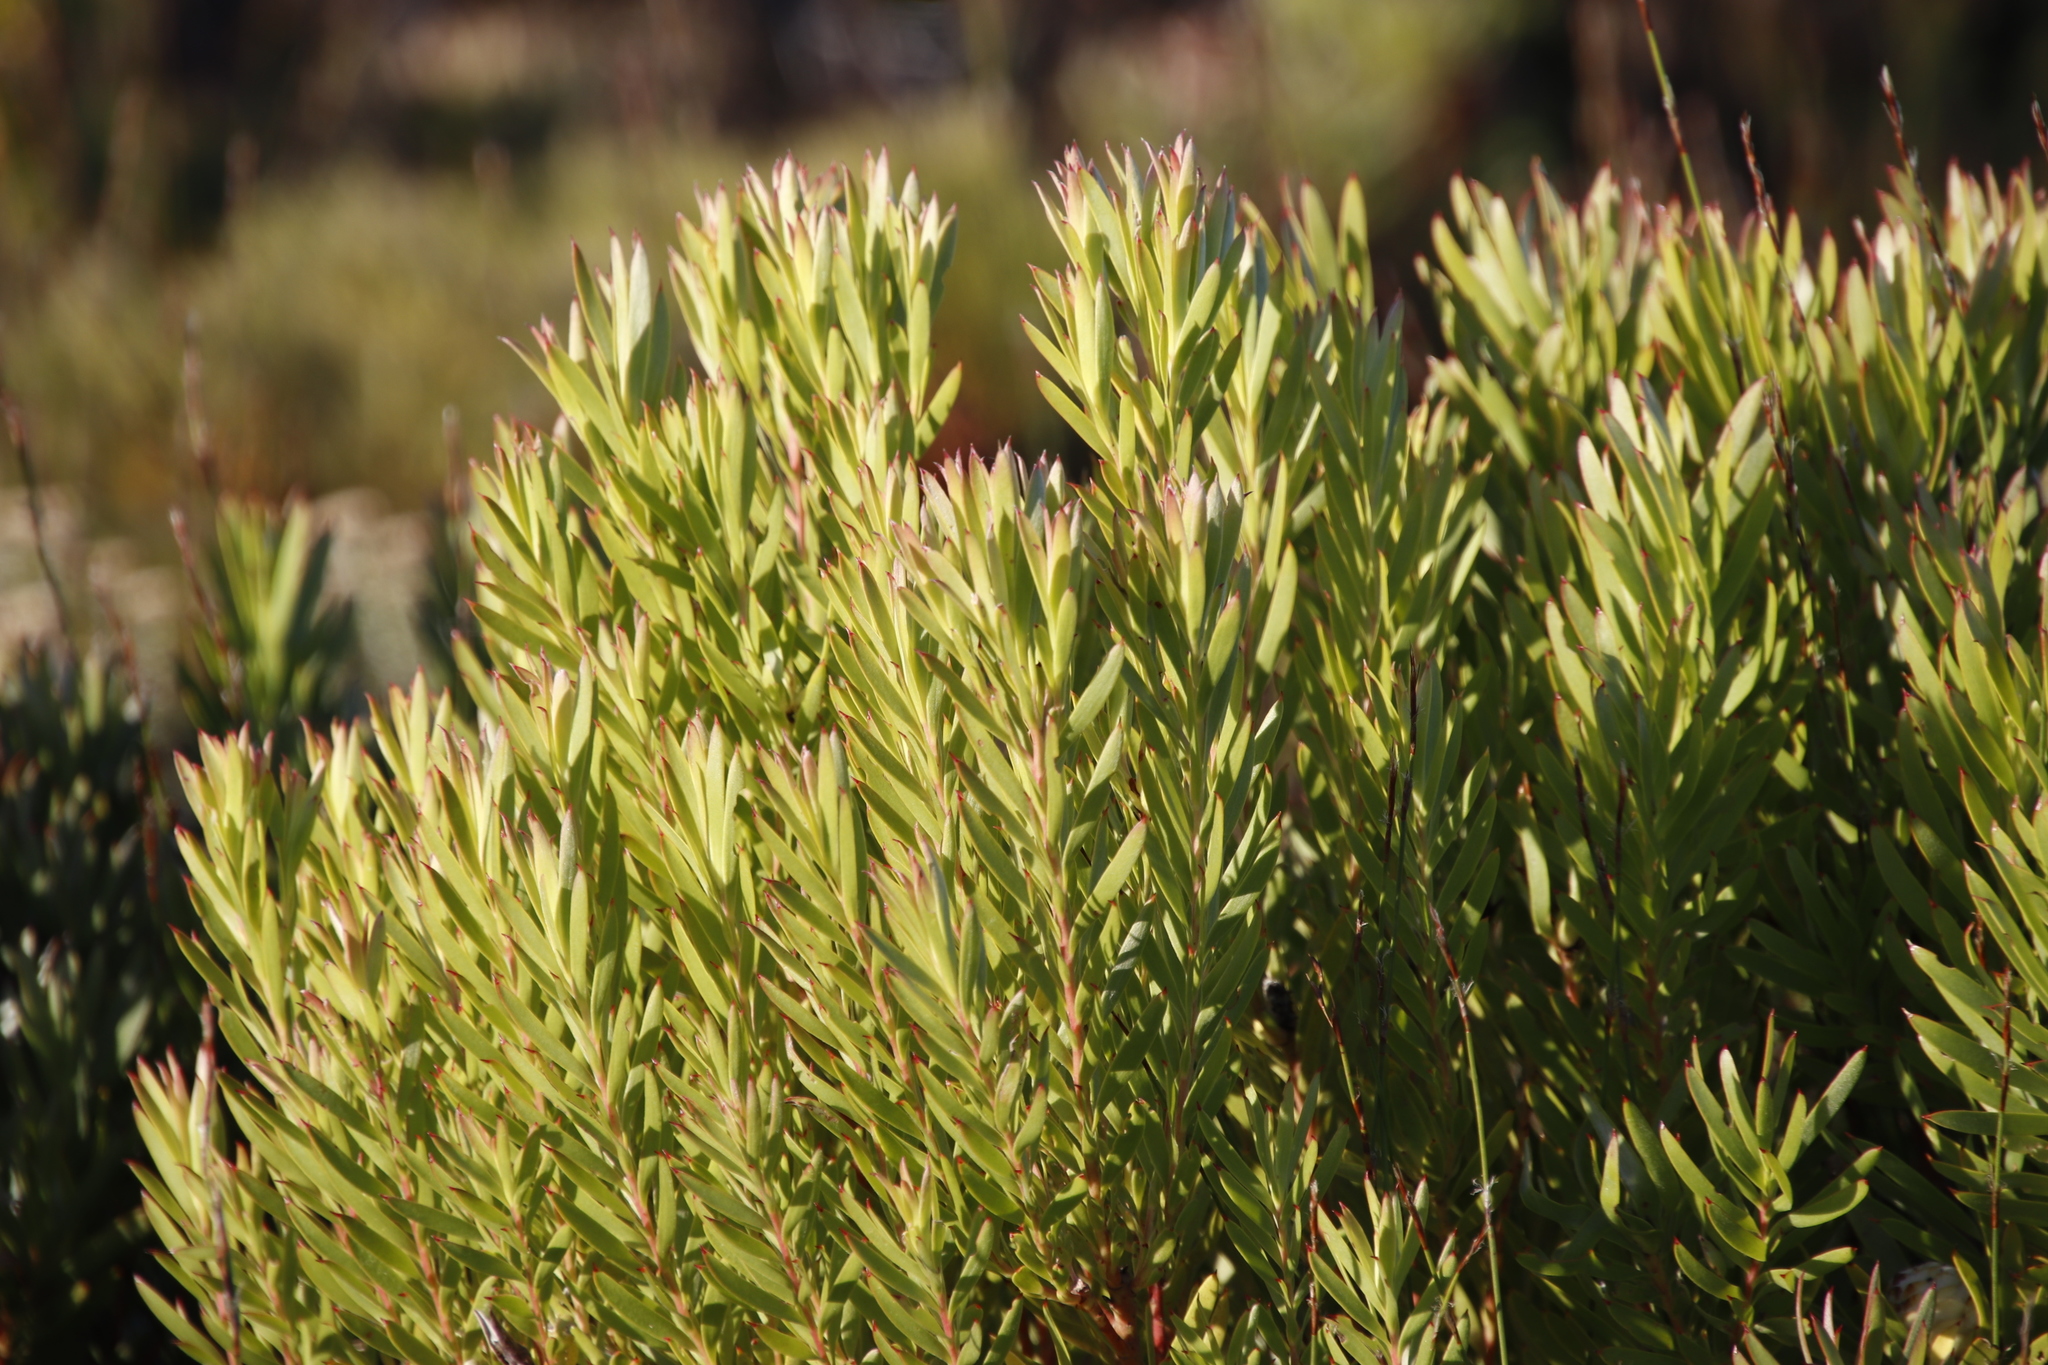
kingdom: Plantae
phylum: Tracheophyta
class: Magnoliopsida
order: Proteales
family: Proteaceae
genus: Leucadendron
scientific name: Leucadendron xanthoconus
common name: Sickle-leaf conebush
